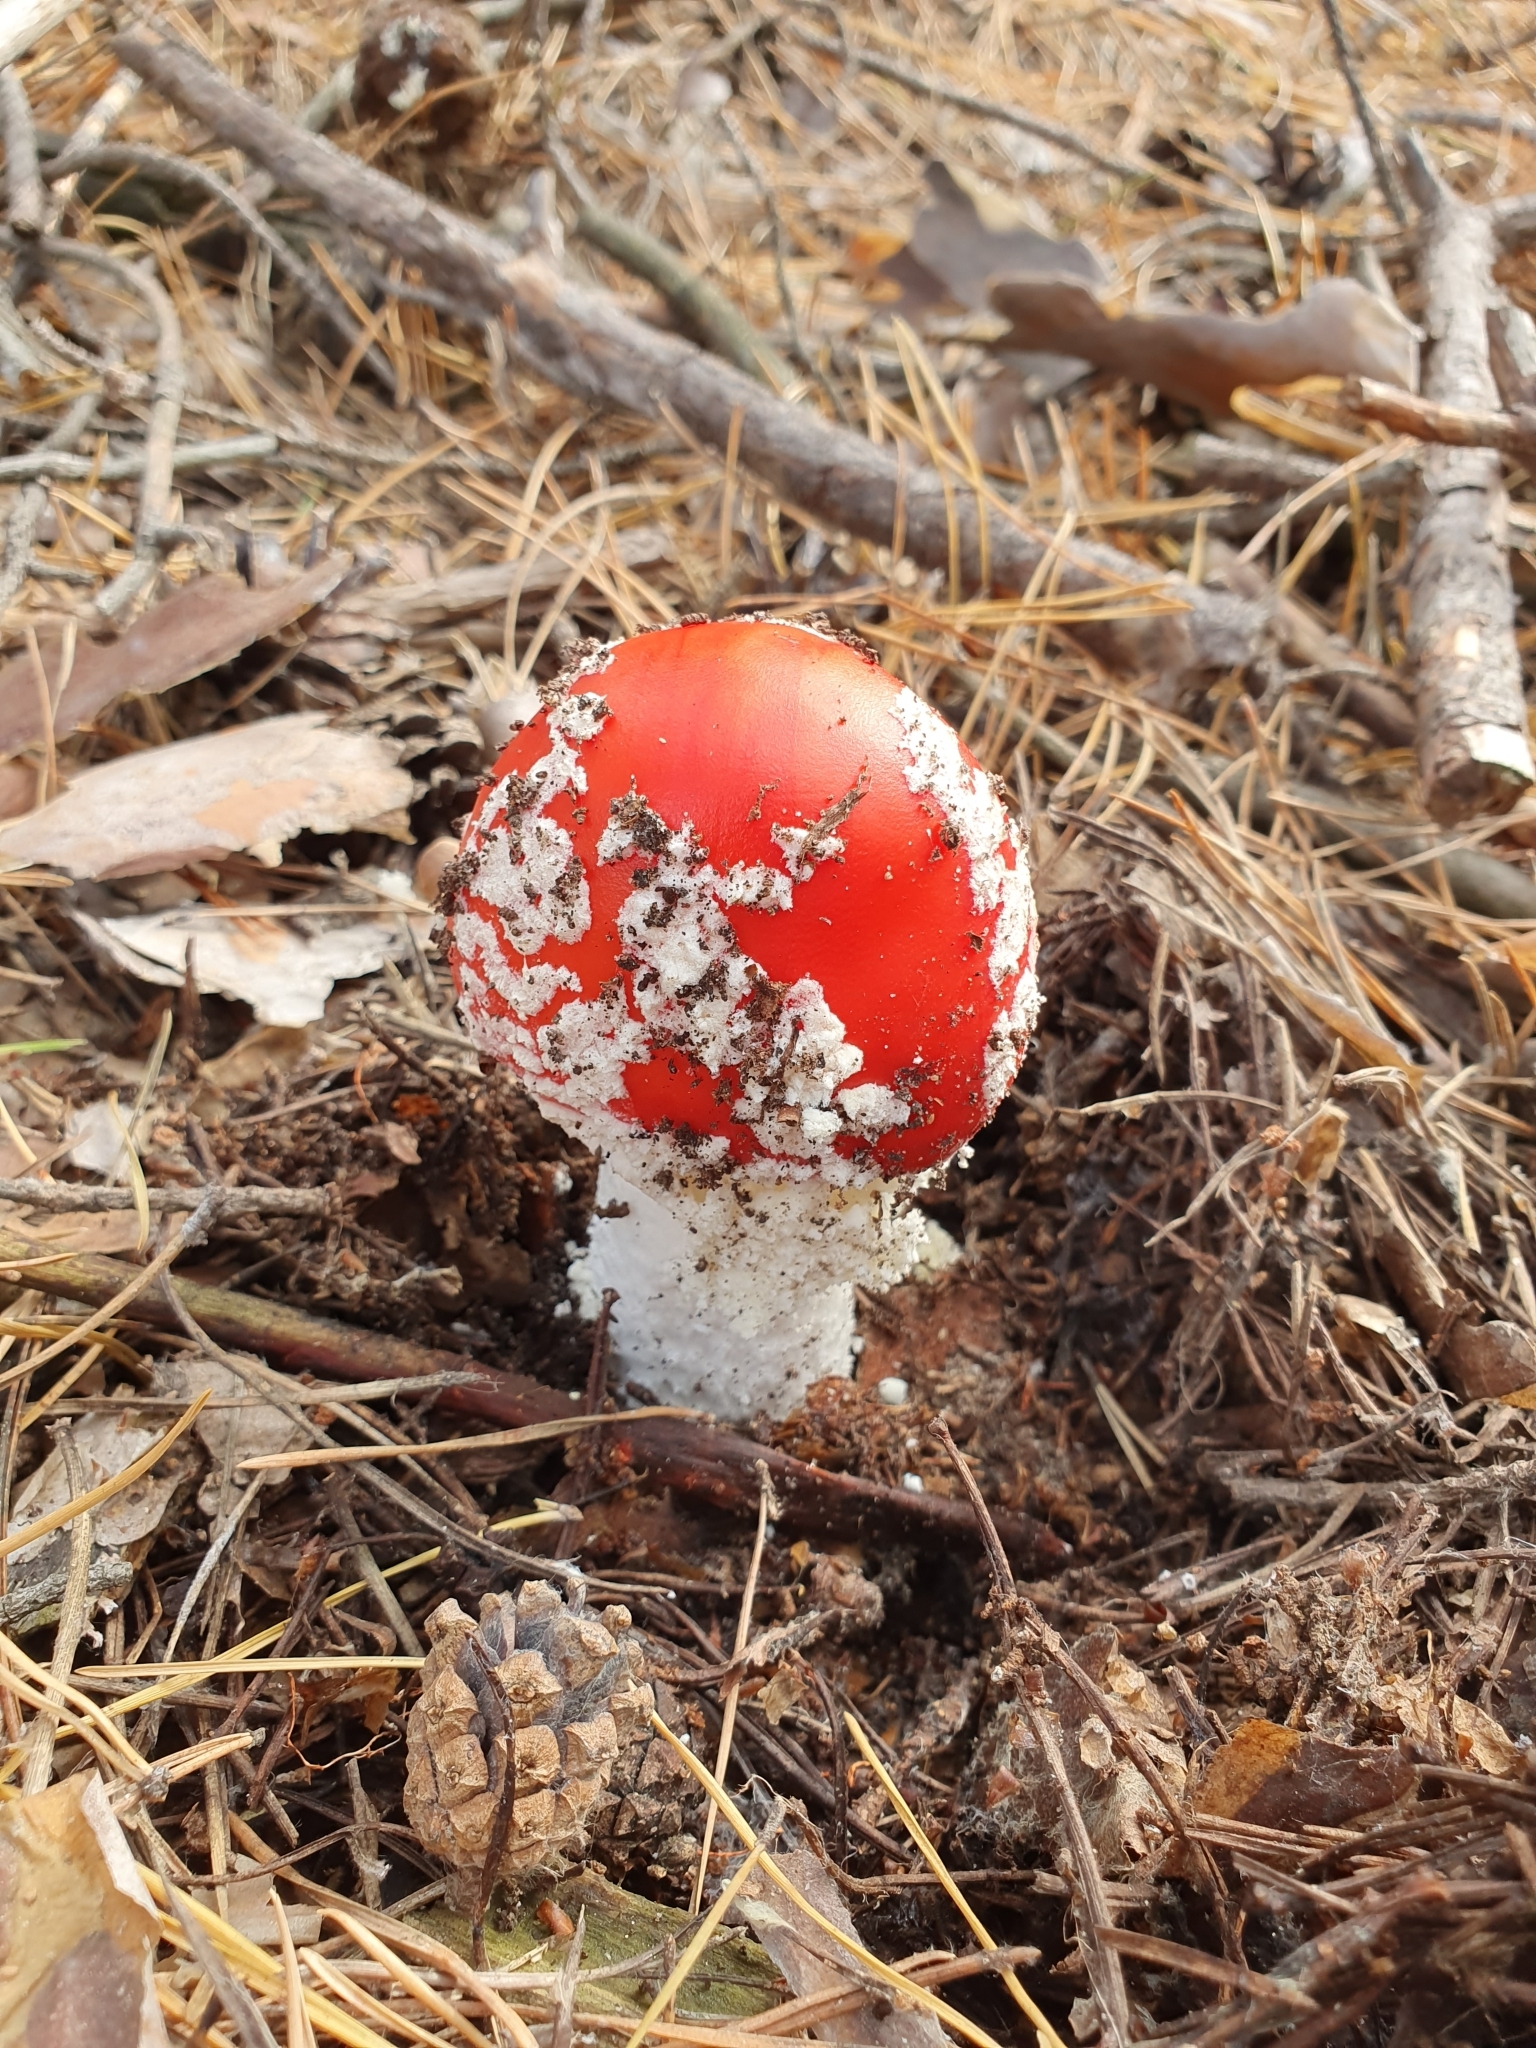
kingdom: Fungi
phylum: Basidiomycota
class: Agaricomycetes
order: Agaricales
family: Amanitaceae
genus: Amanita
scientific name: Amanita muscaria
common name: Fly agaric
